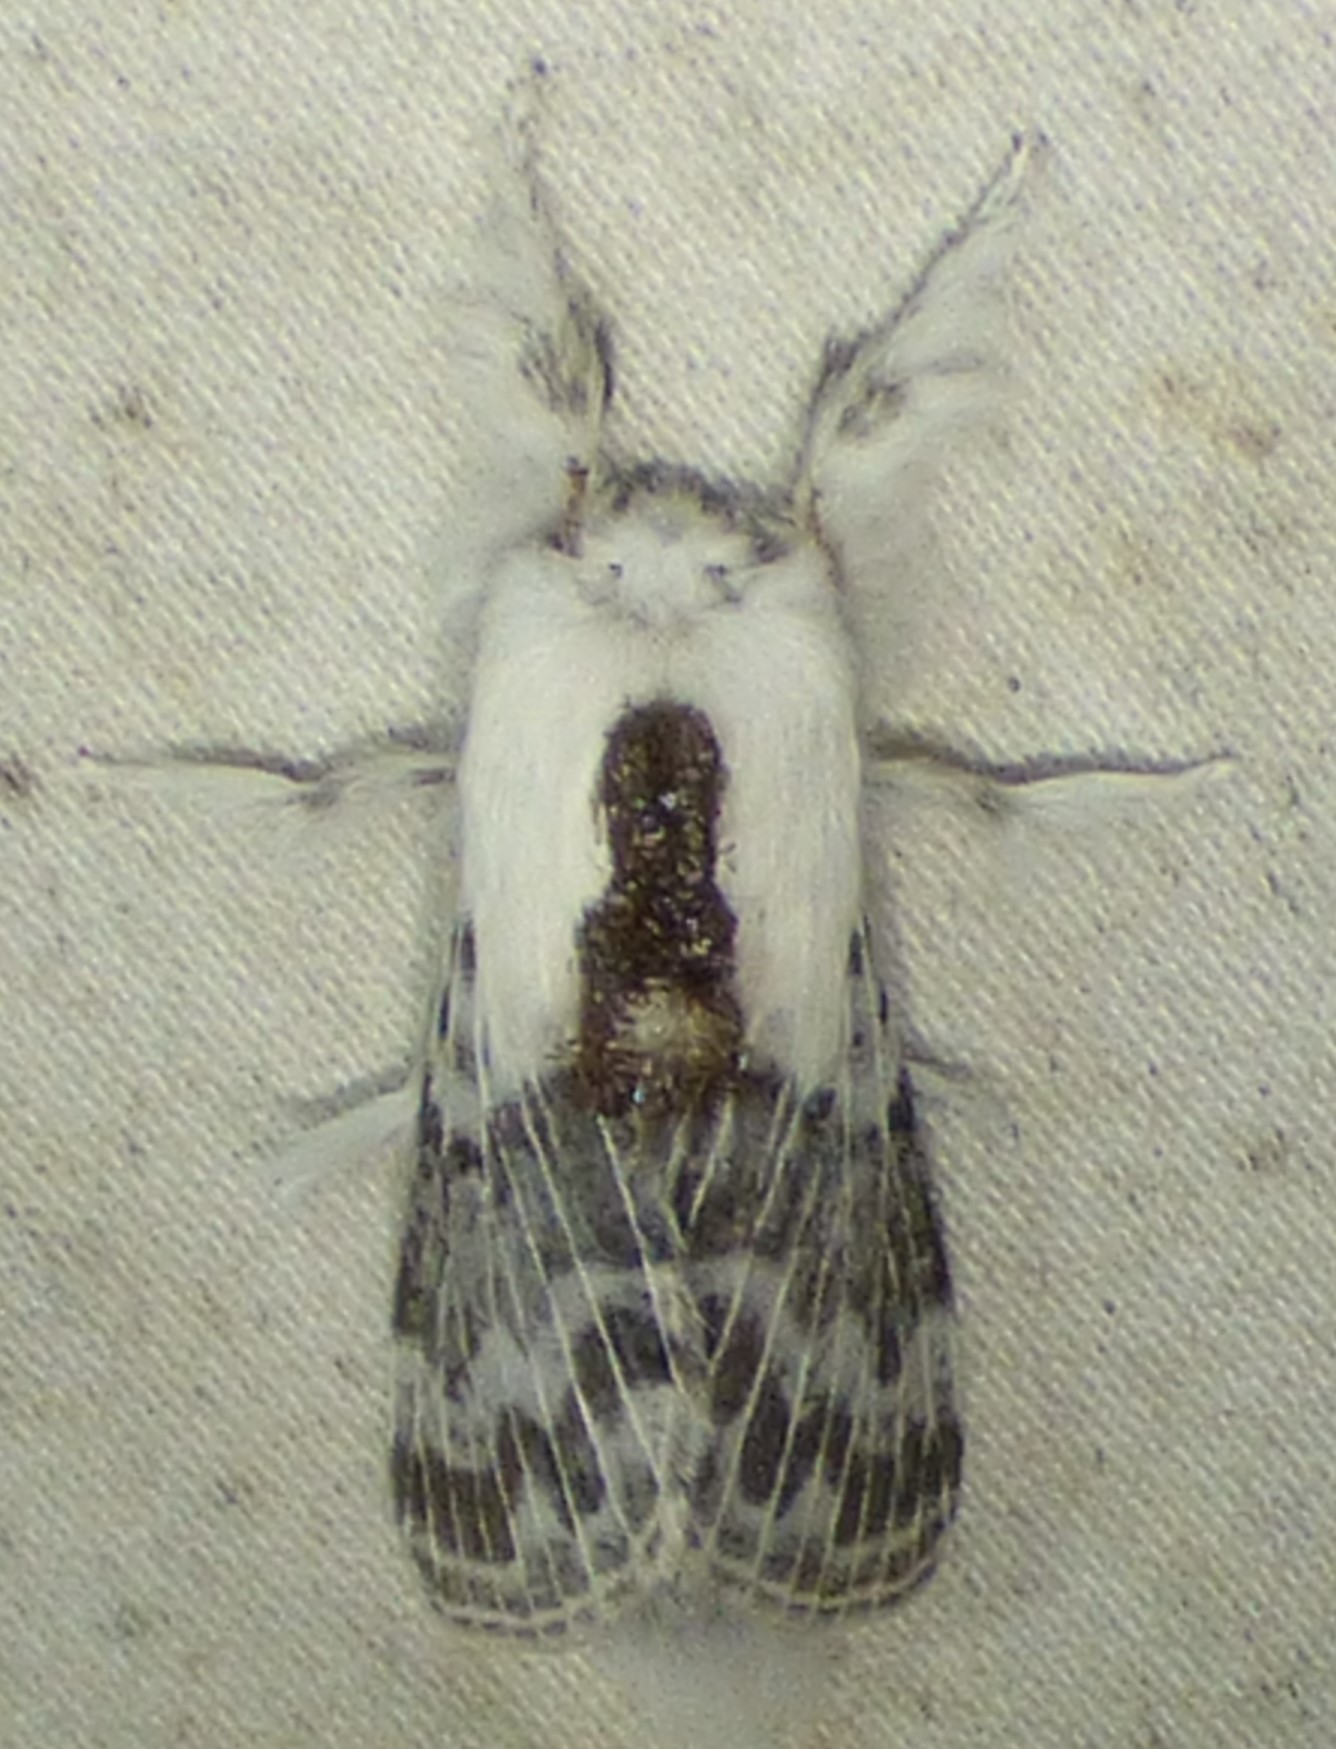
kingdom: Animalia
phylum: Arthropoda
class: Insecta
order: Lepidoptera
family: Lasiocampidae
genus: Tolype
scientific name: Tolype velleda
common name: Large tolype moth
